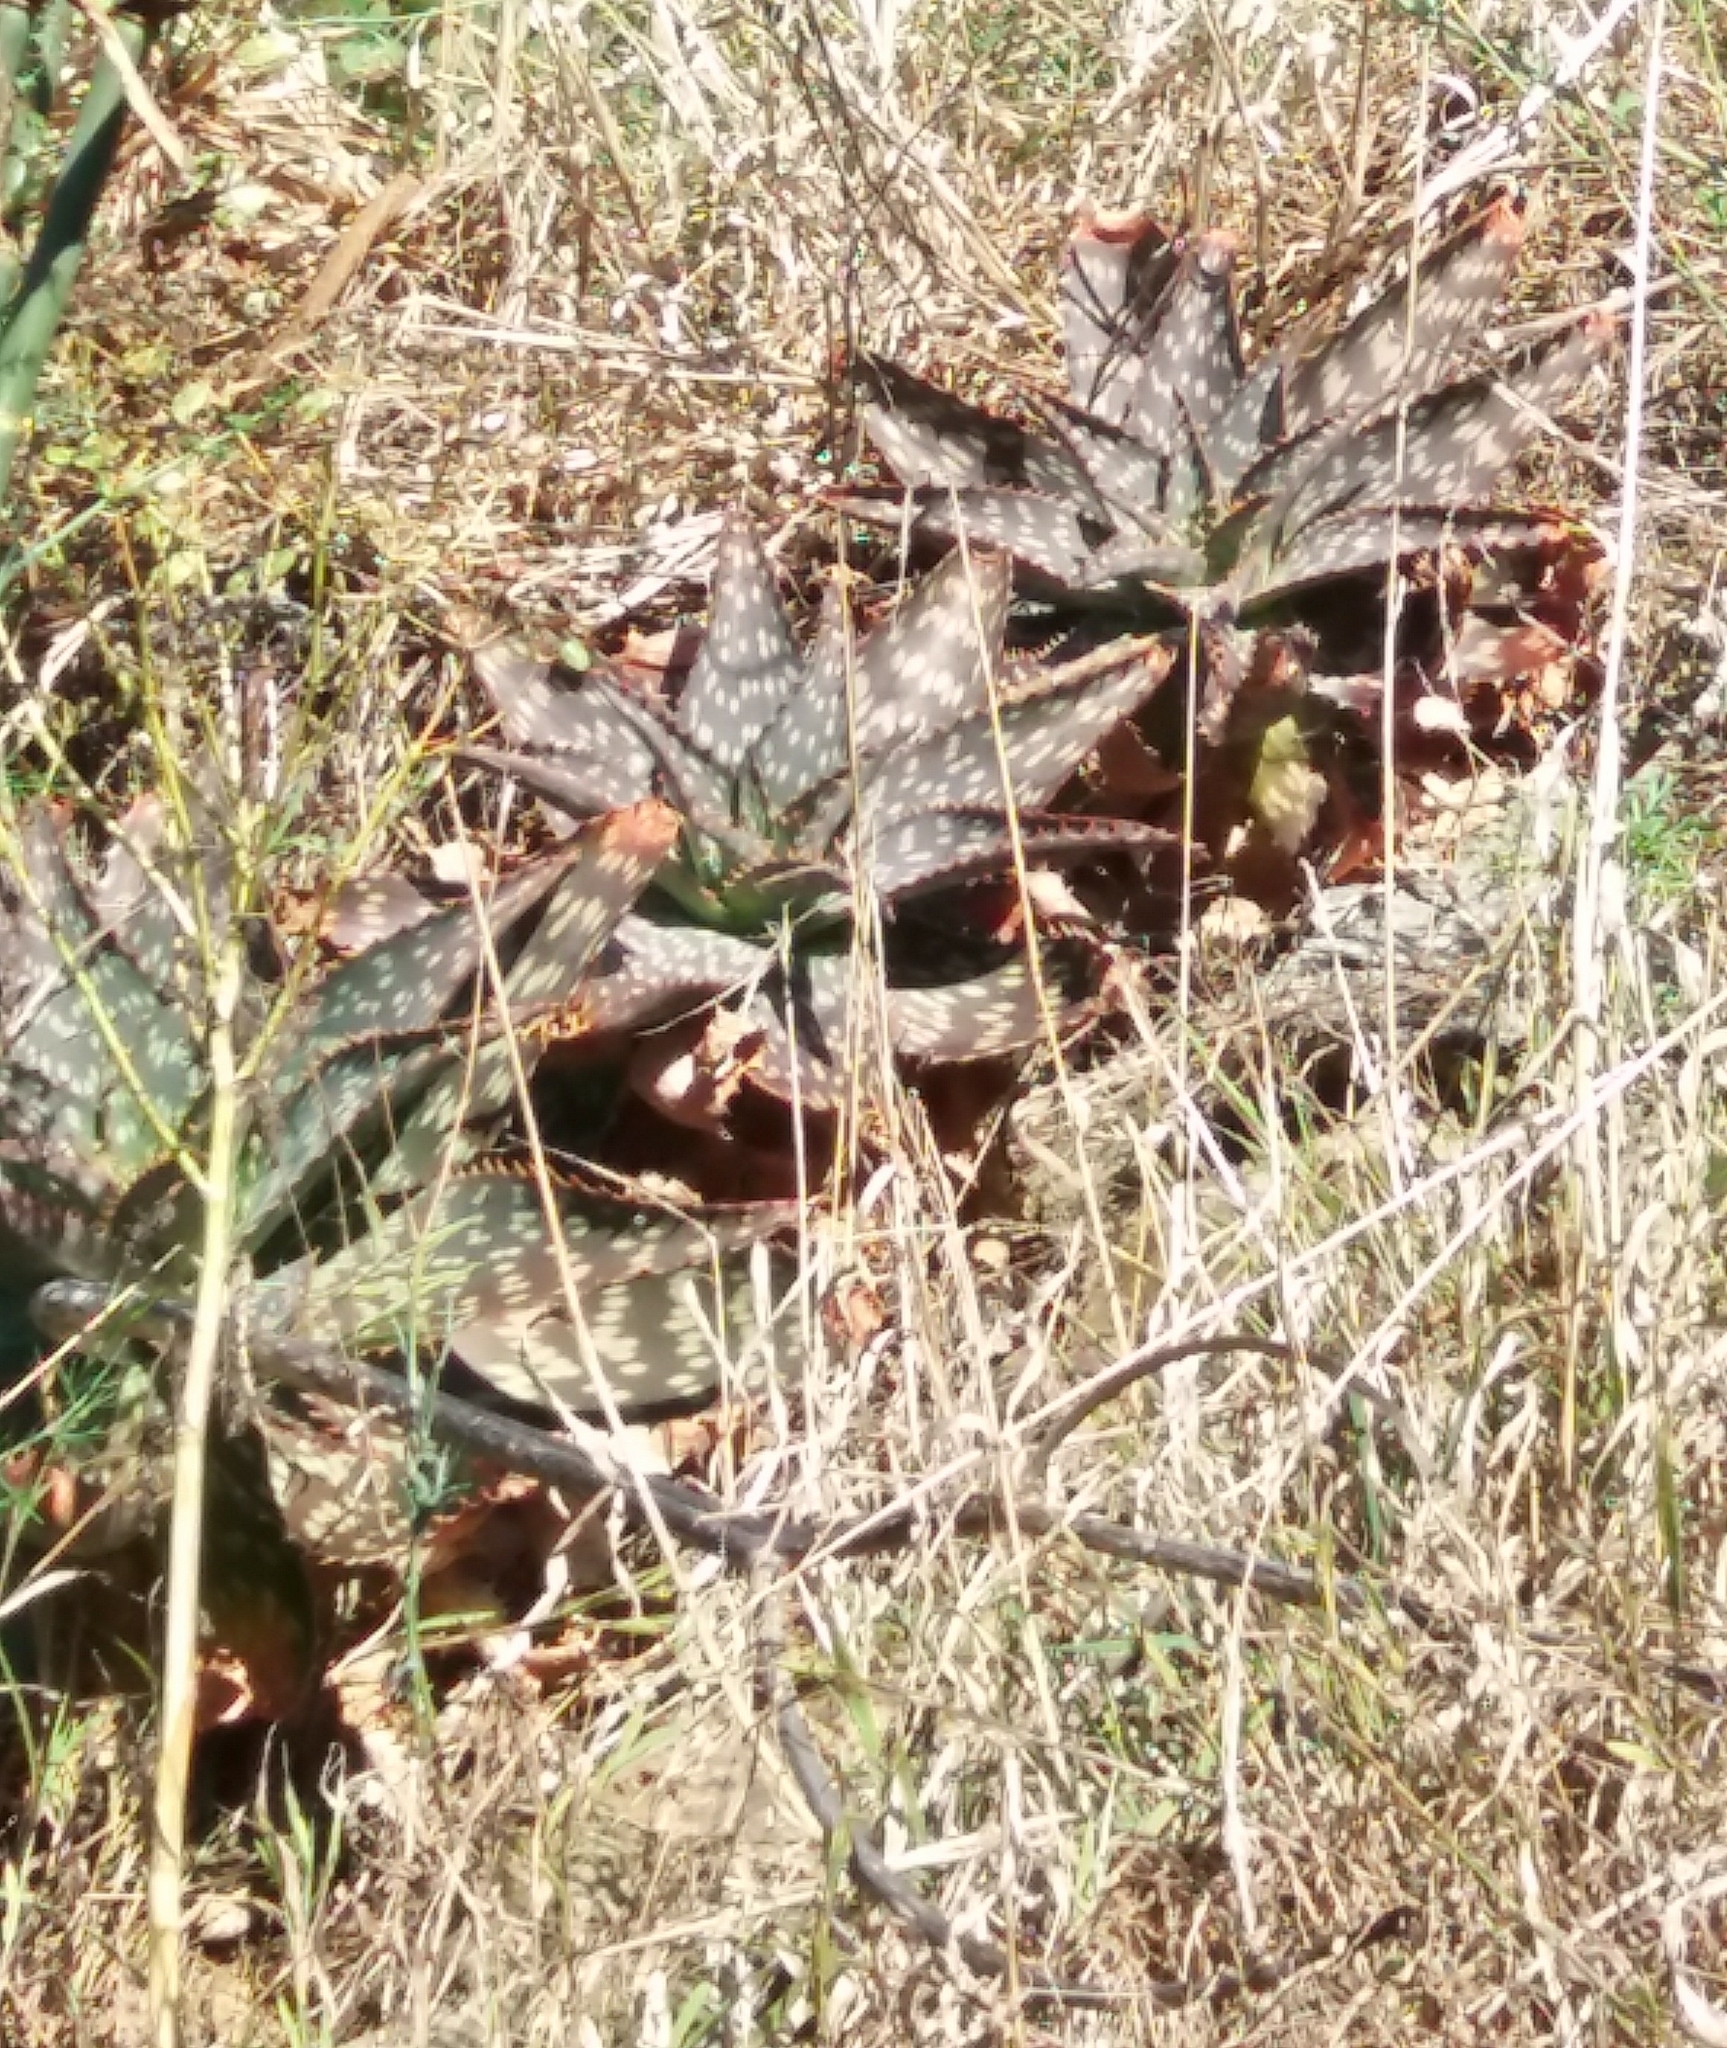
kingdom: Plantae
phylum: Tracheophyta
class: Liliopsida
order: Asparagales
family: Asphodelaceae
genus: Aloe
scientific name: Aloe maculata
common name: Broadleaf aloe
